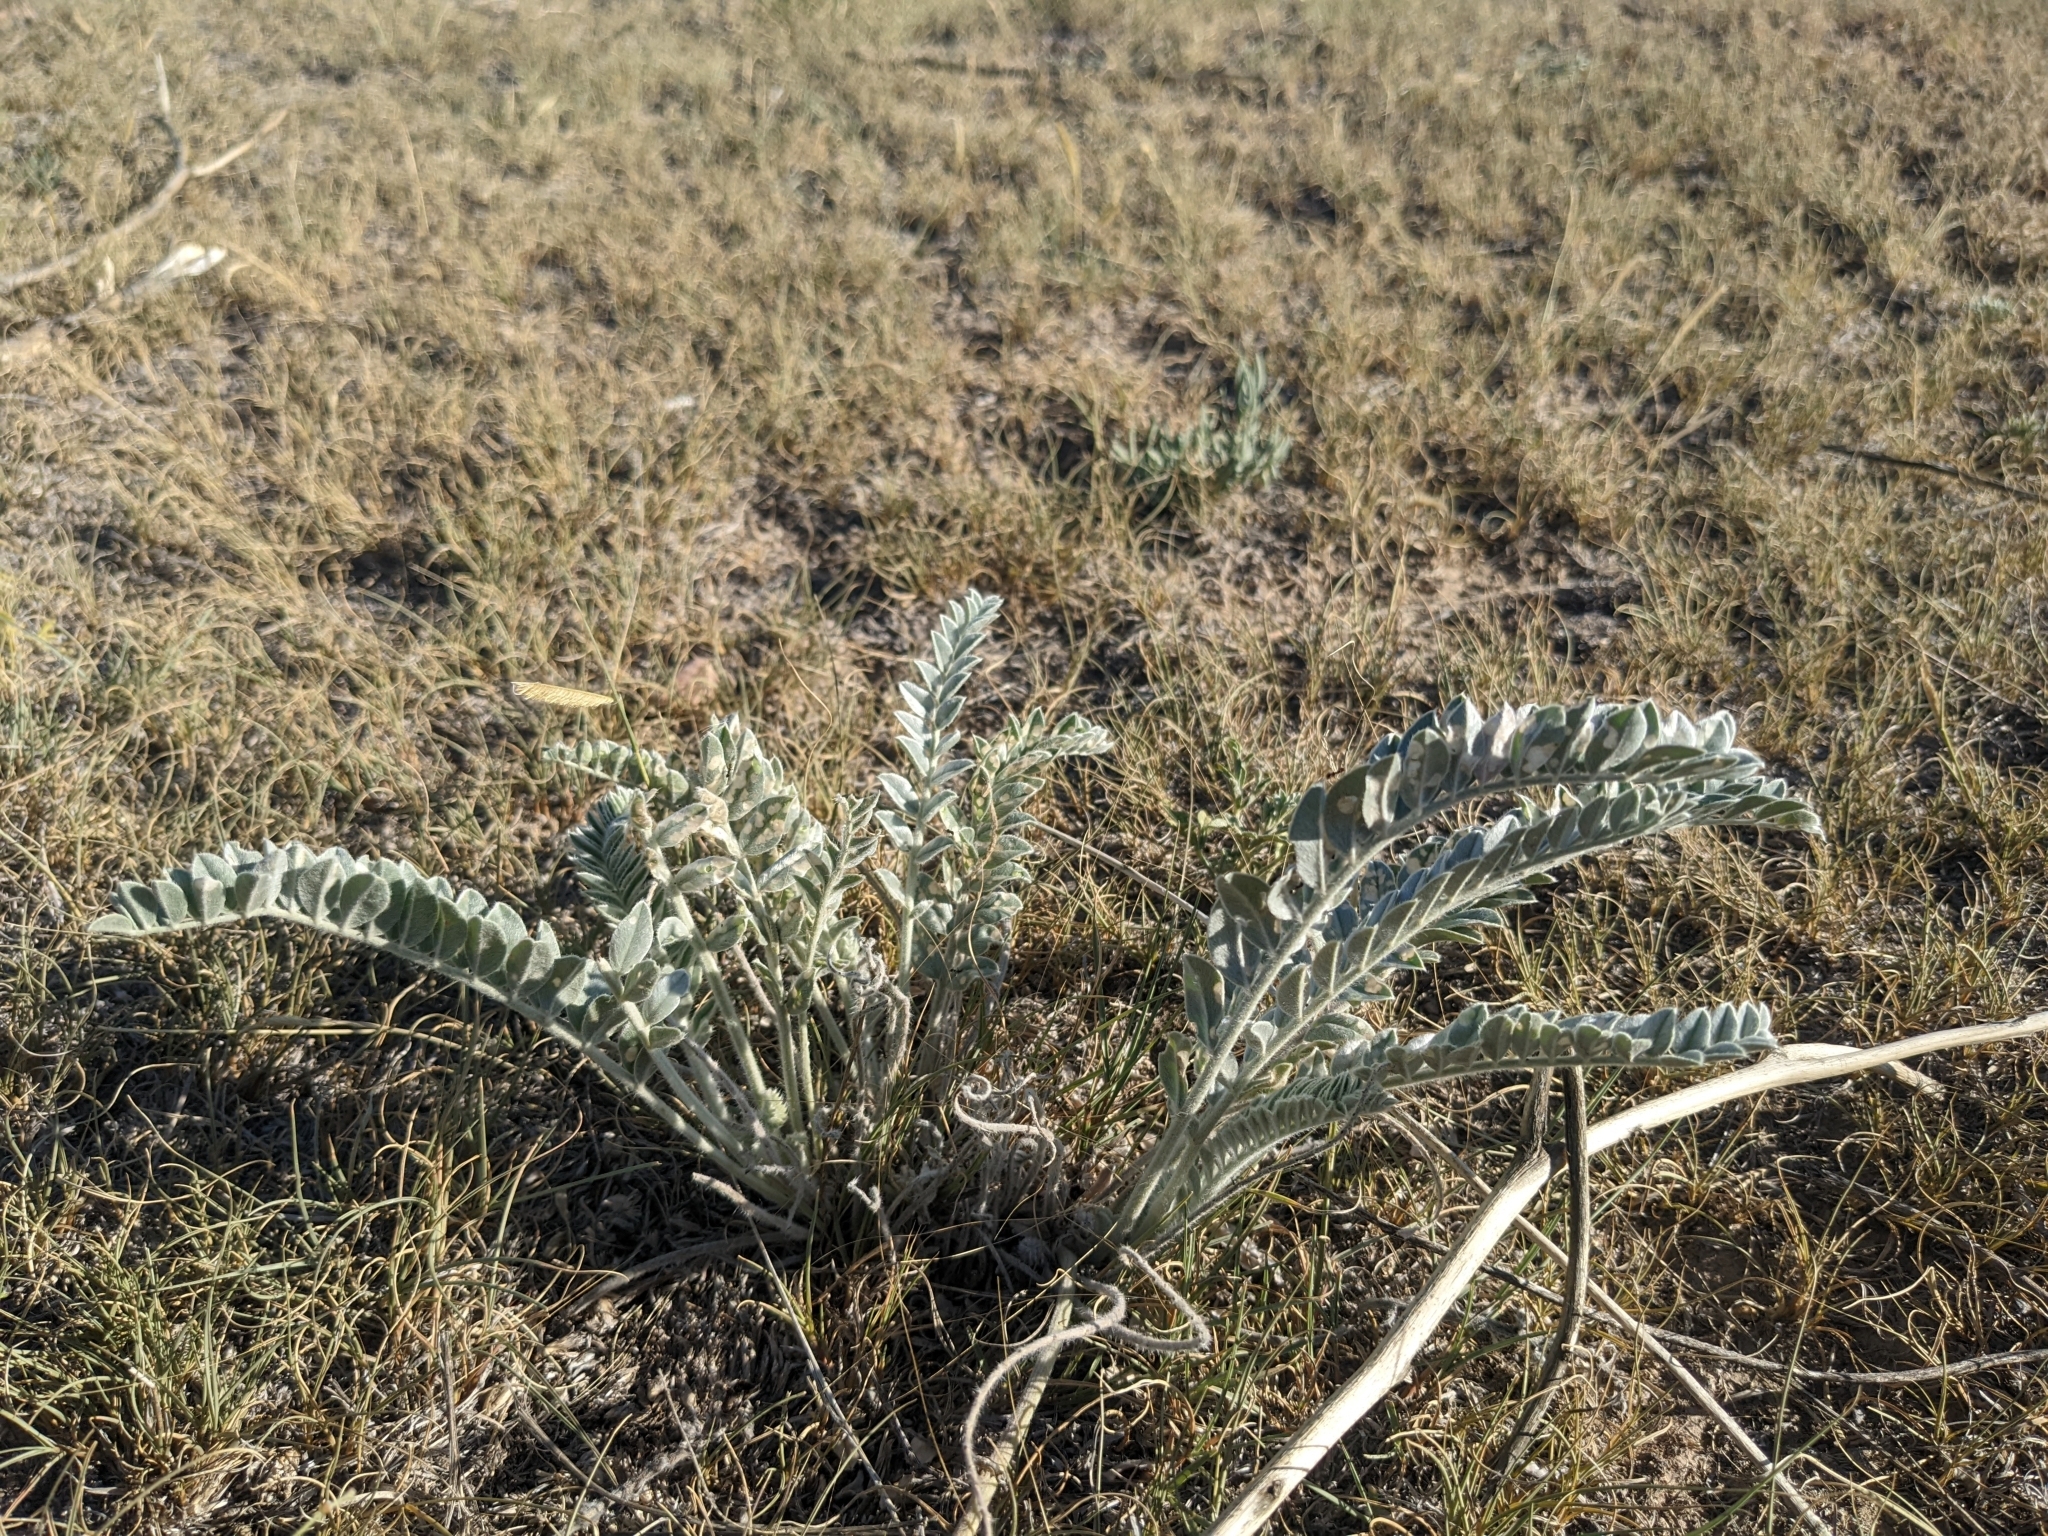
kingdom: Plantae
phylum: Tracheophyta
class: Magnoliopsida
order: Fabales
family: Fabaceae
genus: Astragalus
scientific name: Astragalus mollissimus
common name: Woolly locoweed
